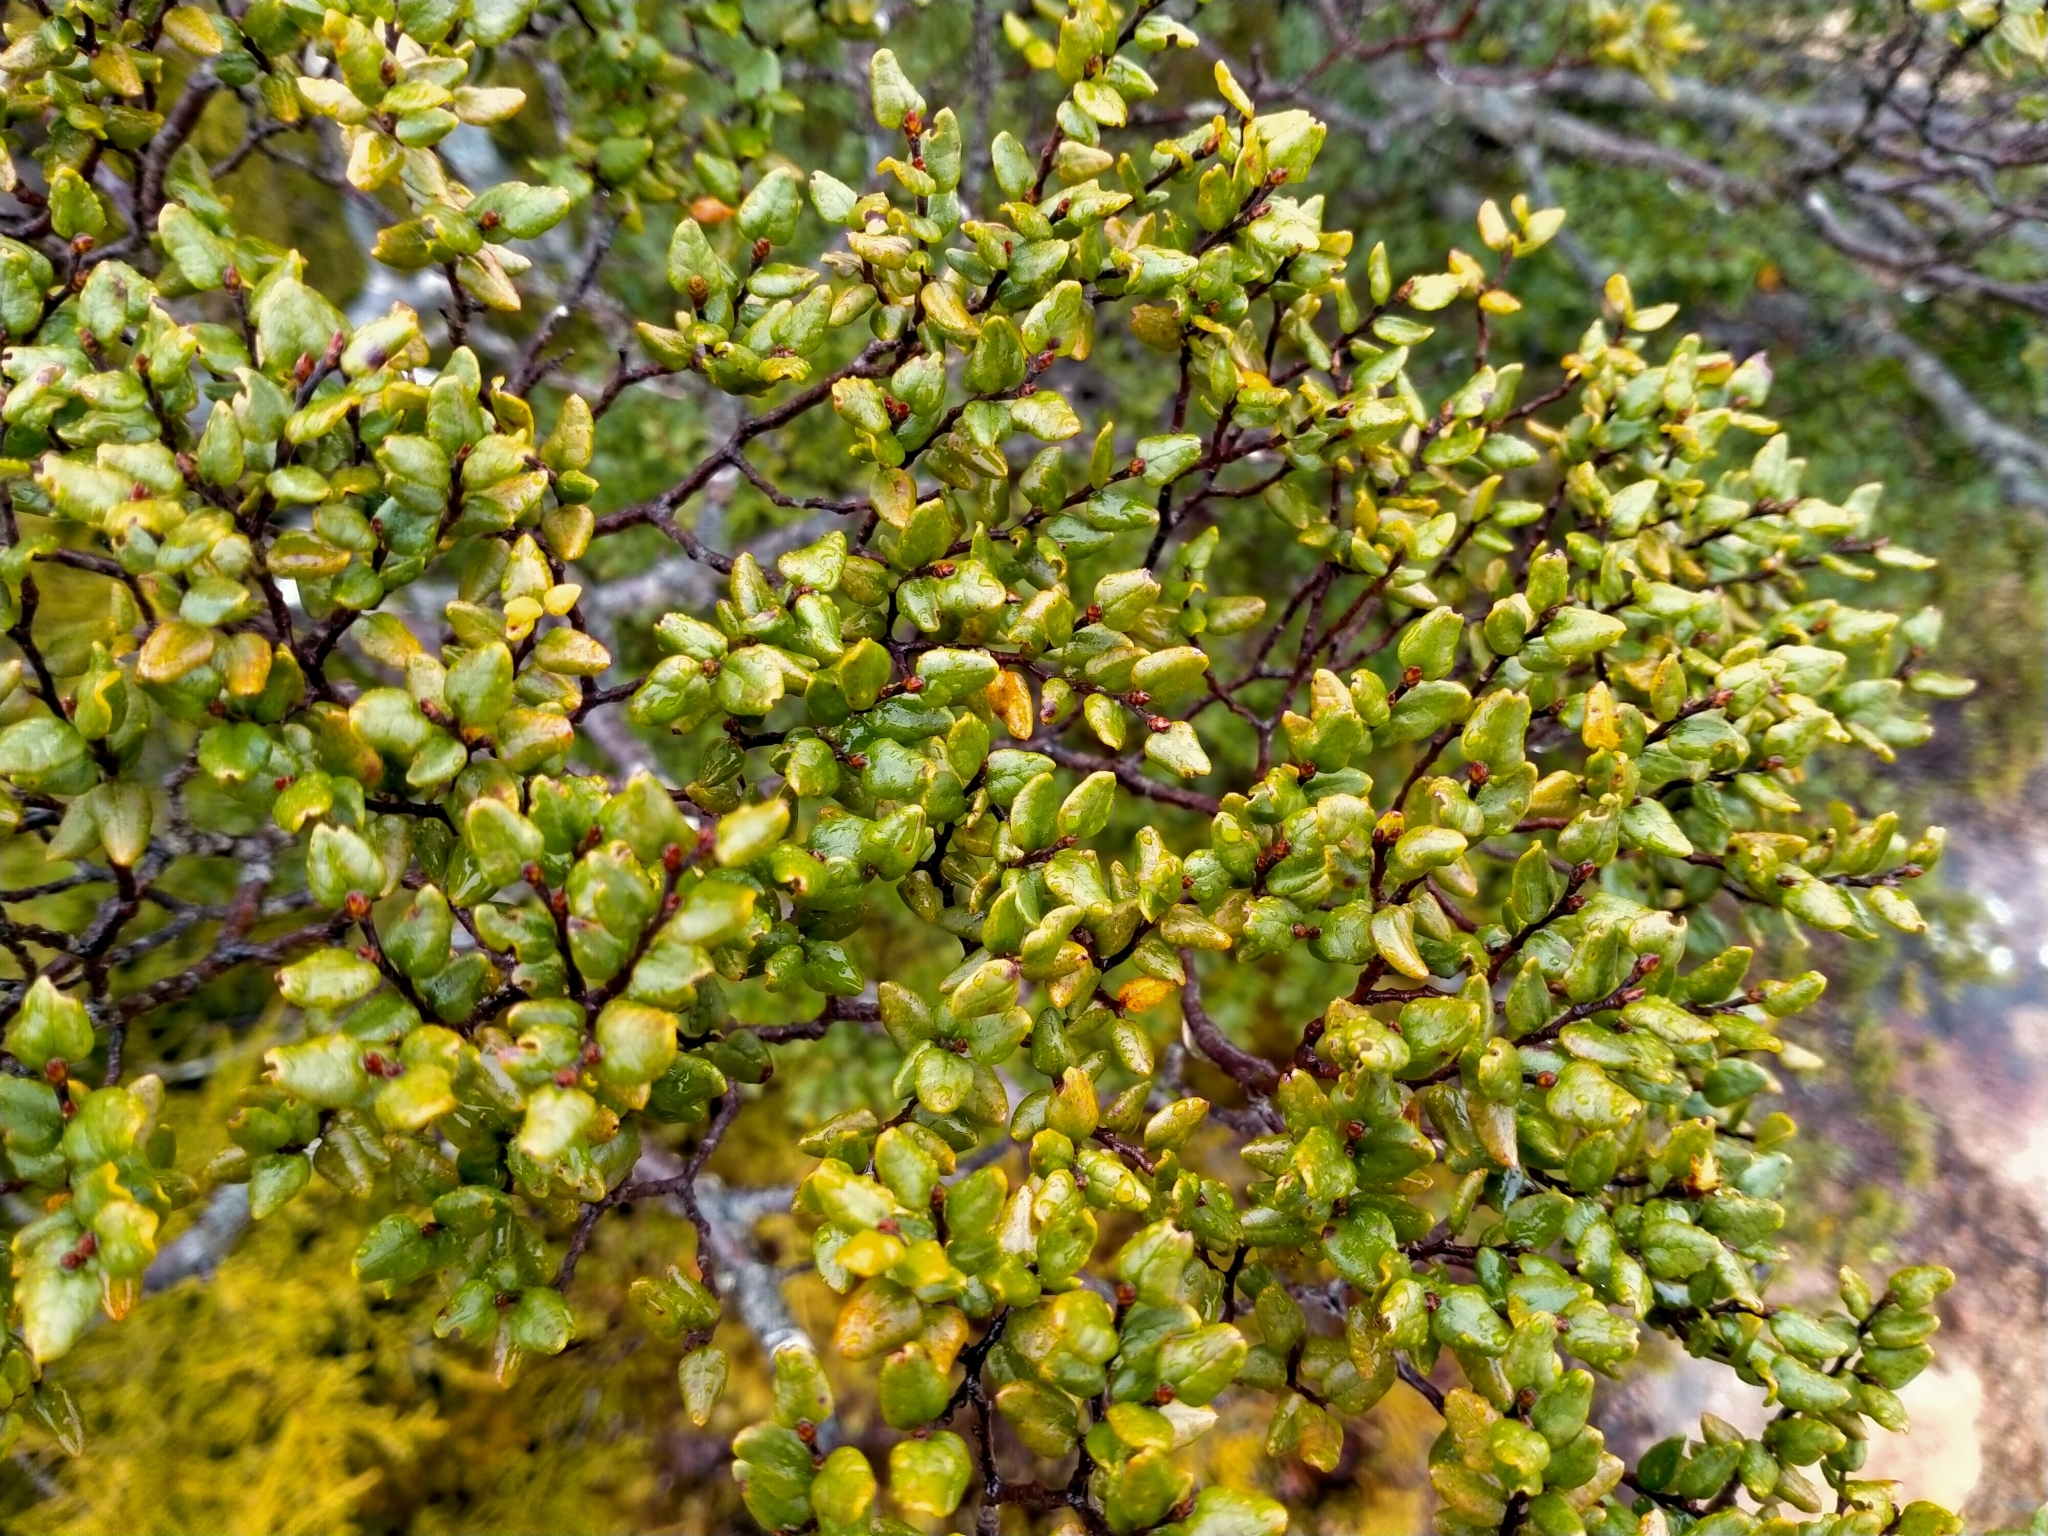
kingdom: Plantae
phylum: Tracheophyta
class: Magnoliopsida
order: Fagales
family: Nothofagaceae
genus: Nothofagus
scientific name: Nothofagus cliffortioides
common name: Mountain beech
